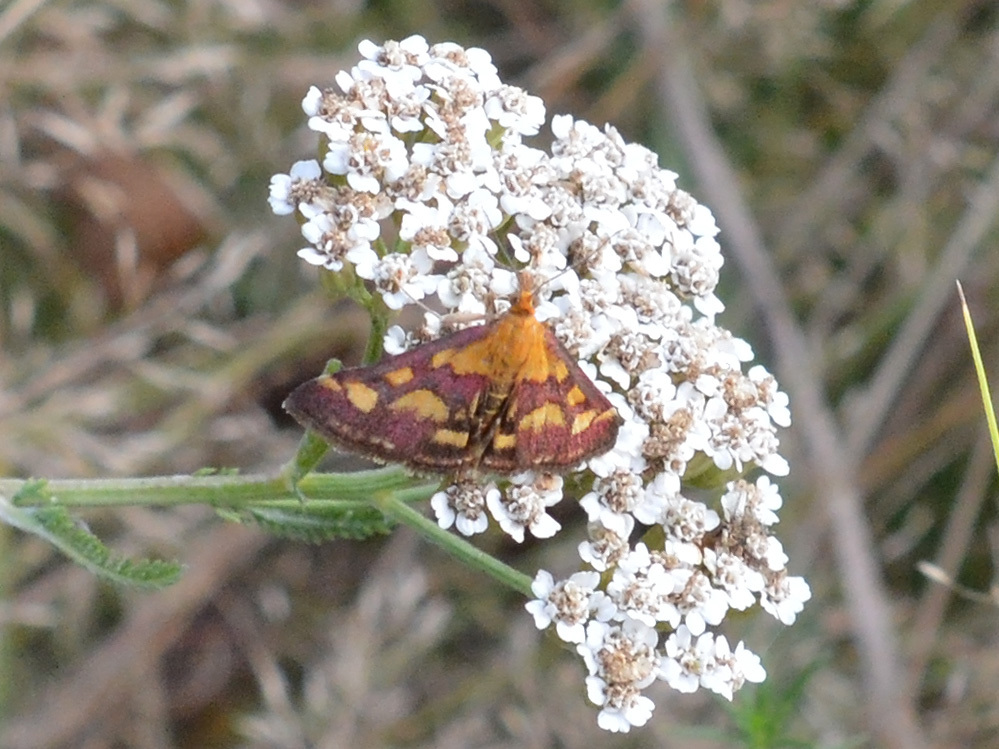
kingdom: Animalia
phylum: Arthropoda
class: Insecta
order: Lepidoptera
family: Crambidae
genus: Pyrausta
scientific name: Pyrausta purpuralis
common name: Common purple & gold
